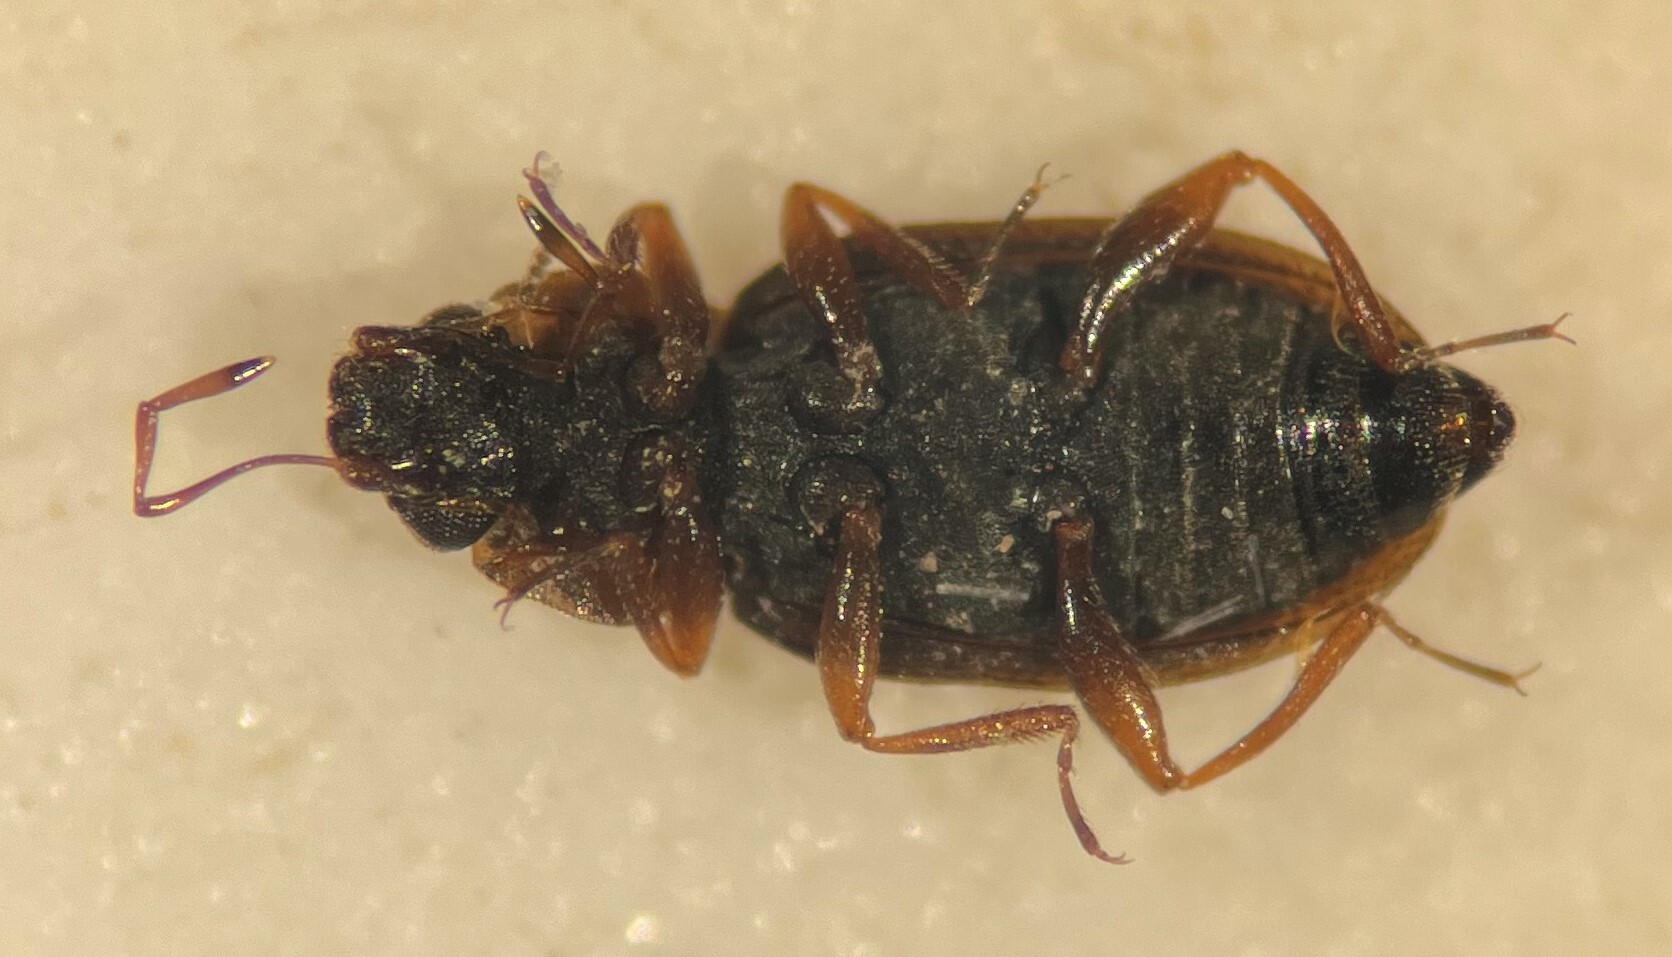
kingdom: Animalia
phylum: Arthropoda
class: Insecta
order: Coleoptera
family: Hydraenidae
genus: Hydraena
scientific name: Hydraena leechi
